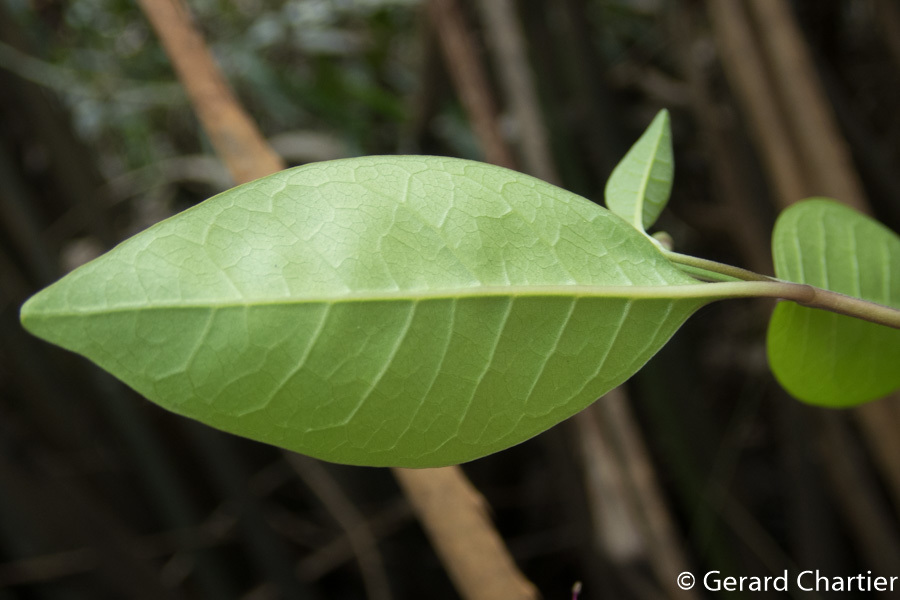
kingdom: Plantae
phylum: Tracheophyta
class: Magnoliopsida
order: Lamiales
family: Lamiaceae
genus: Volkameria
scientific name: Volkameria inermis
